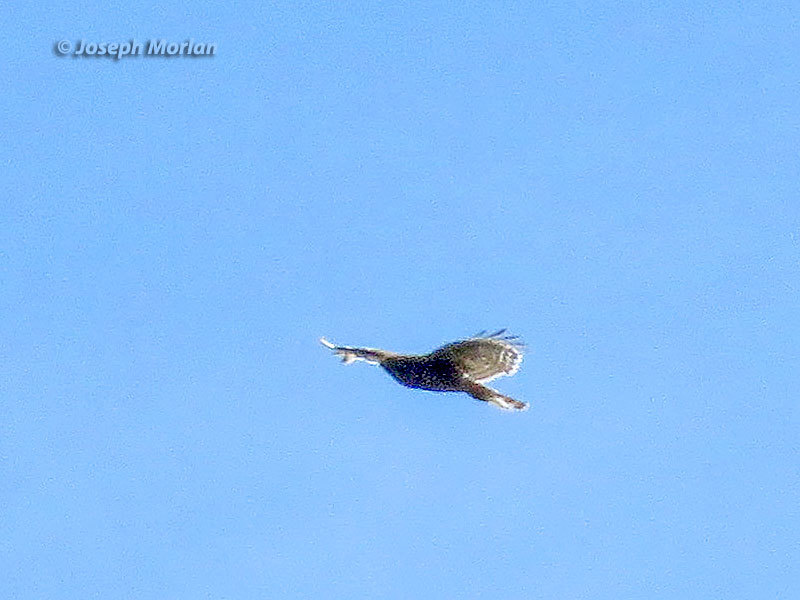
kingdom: Animalia
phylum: Chordata
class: Aves
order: Accipitriformes
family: Accipitridae
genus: Buteo
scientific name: Buteo lineatus
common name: Red-shouldered hawk
